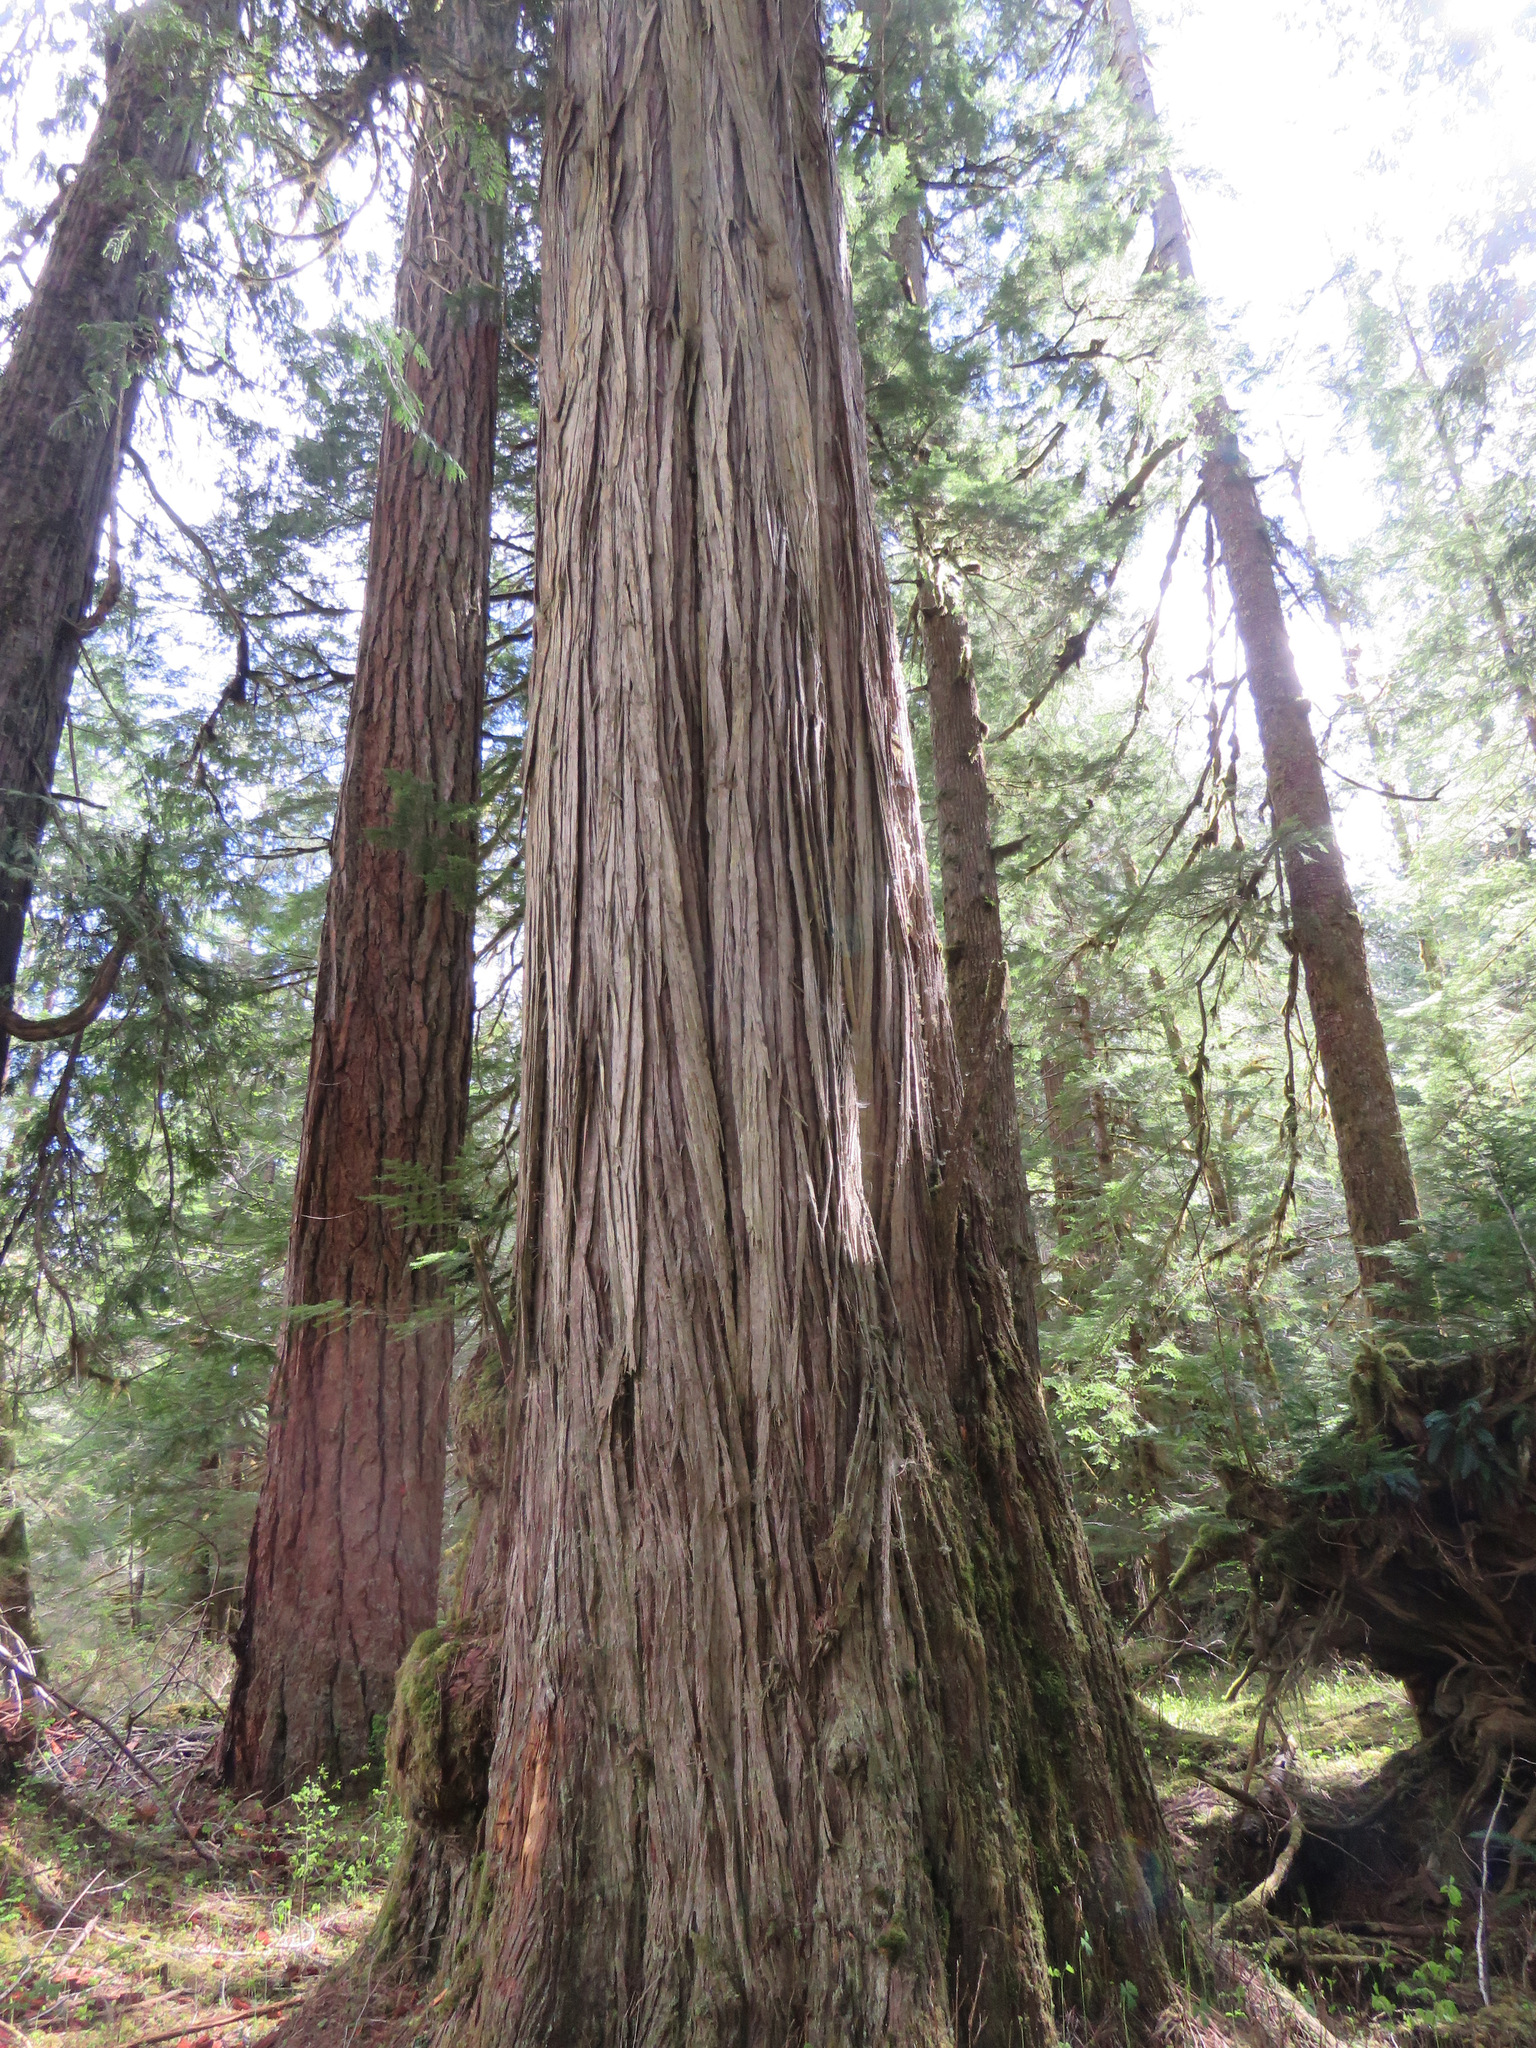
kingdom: Plantae
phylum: Tracheophyta
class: Pinopsida
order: Pinales
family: Cupressaceae
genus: Thuja
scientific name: Thuja plicata
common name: Western red-cedar
